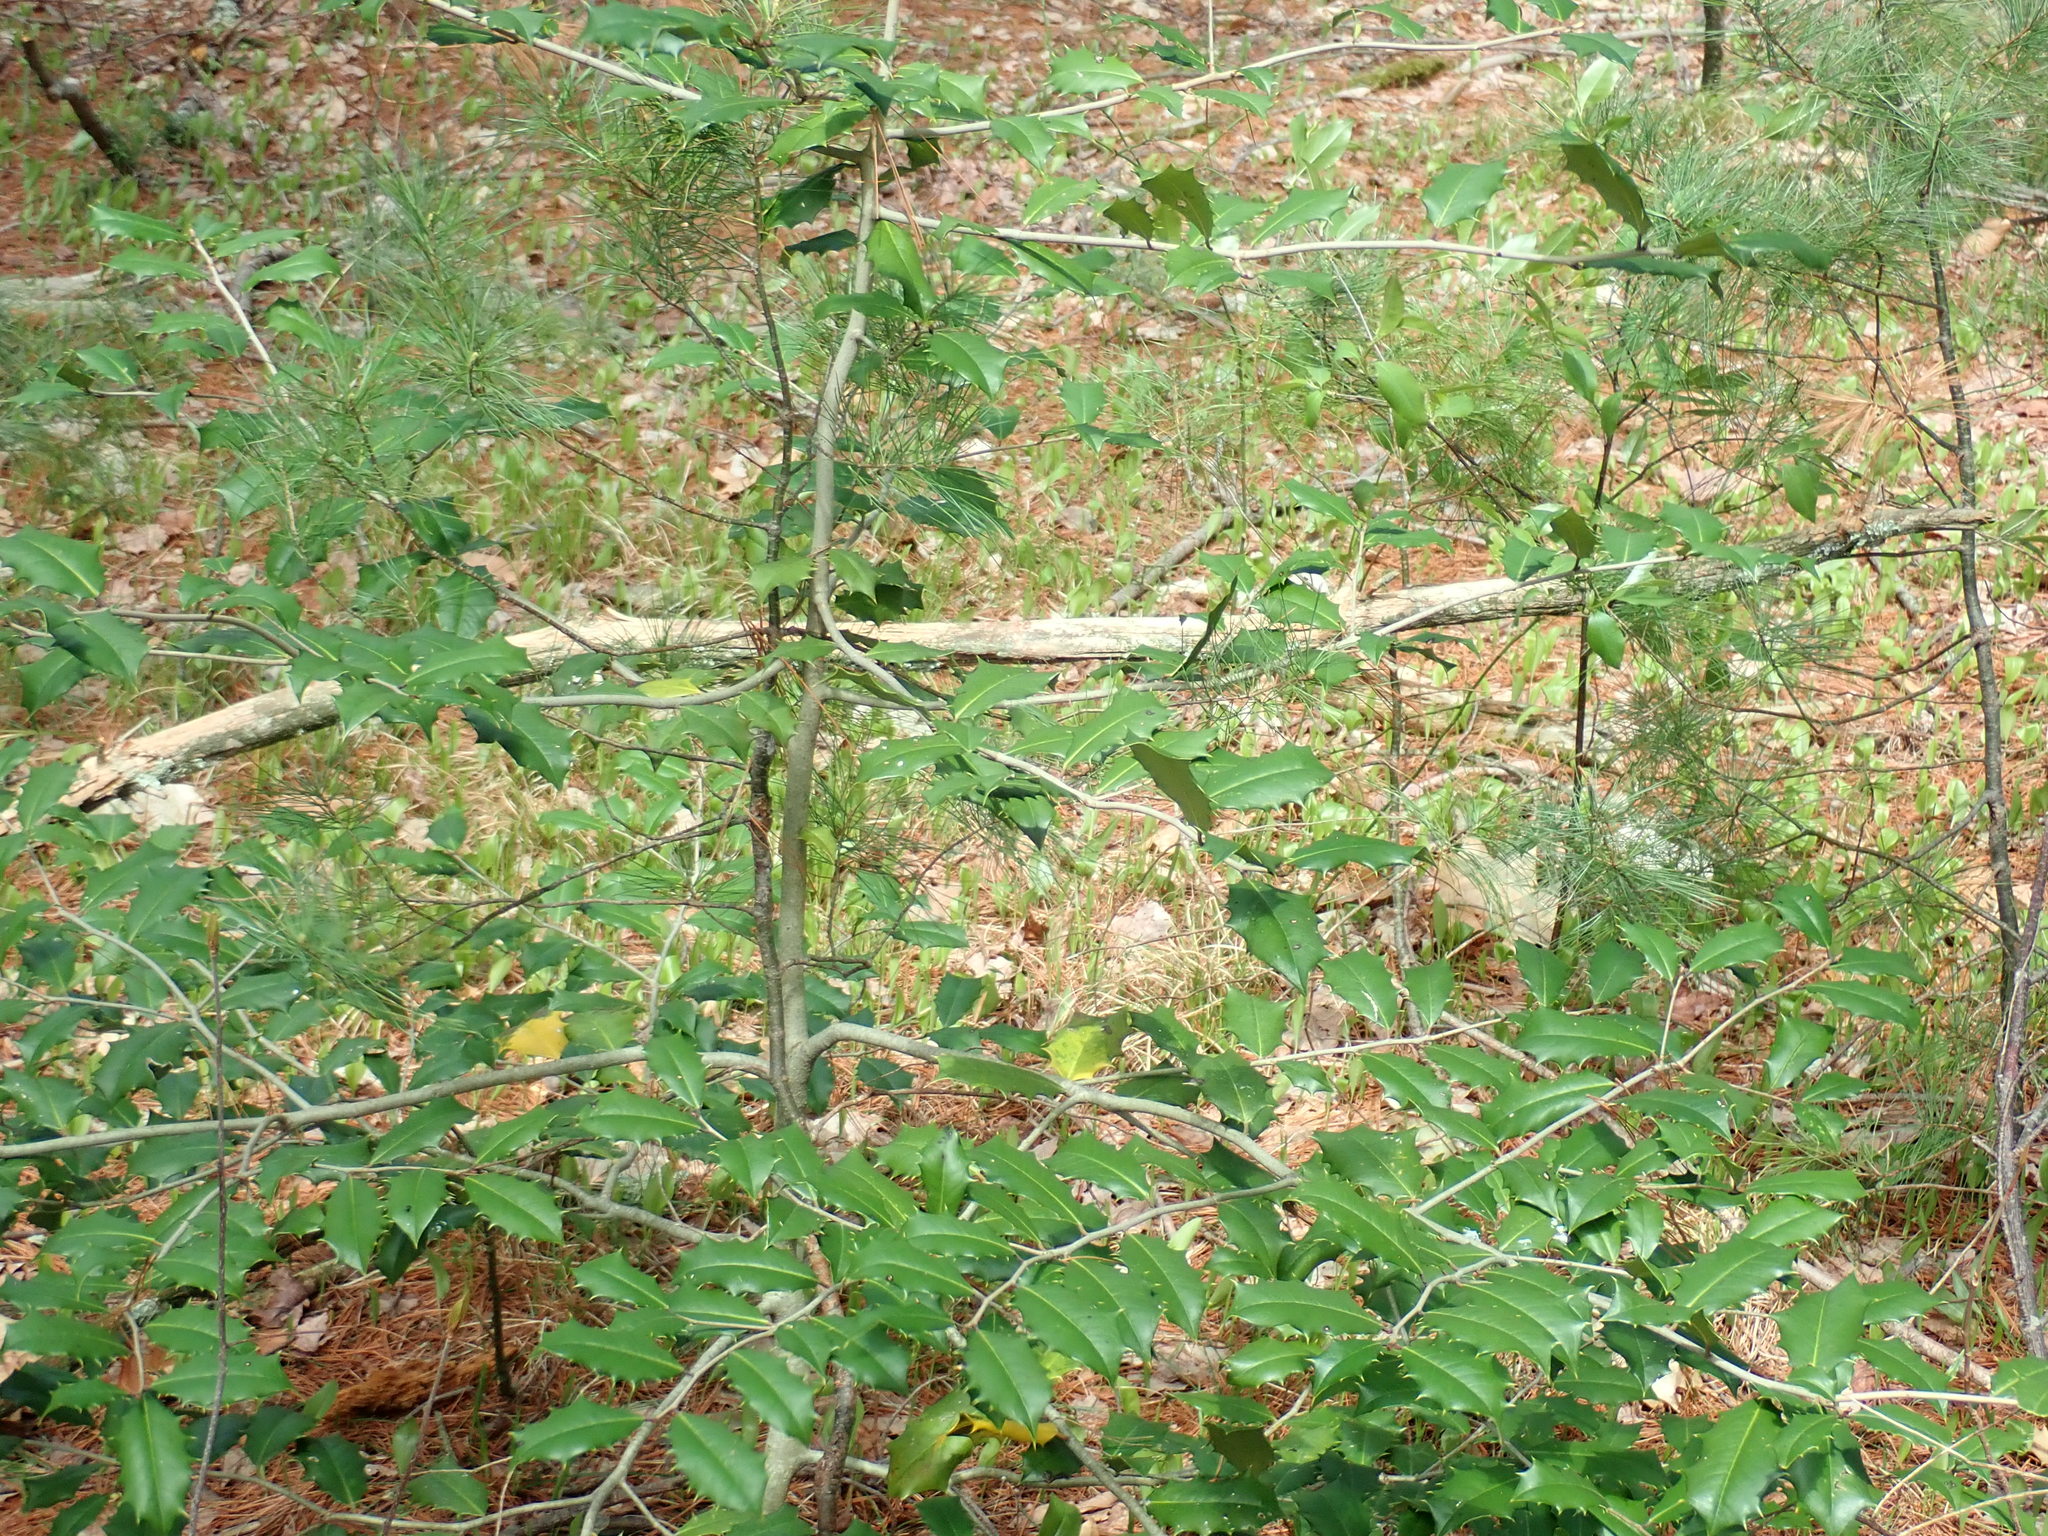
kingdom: Plantae
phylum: Tracheophyta
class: Magnoliopsida
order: Aquifoliales
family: Aquifoliaceae
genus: Ilex
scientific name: Ilex opaca
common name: American holly
